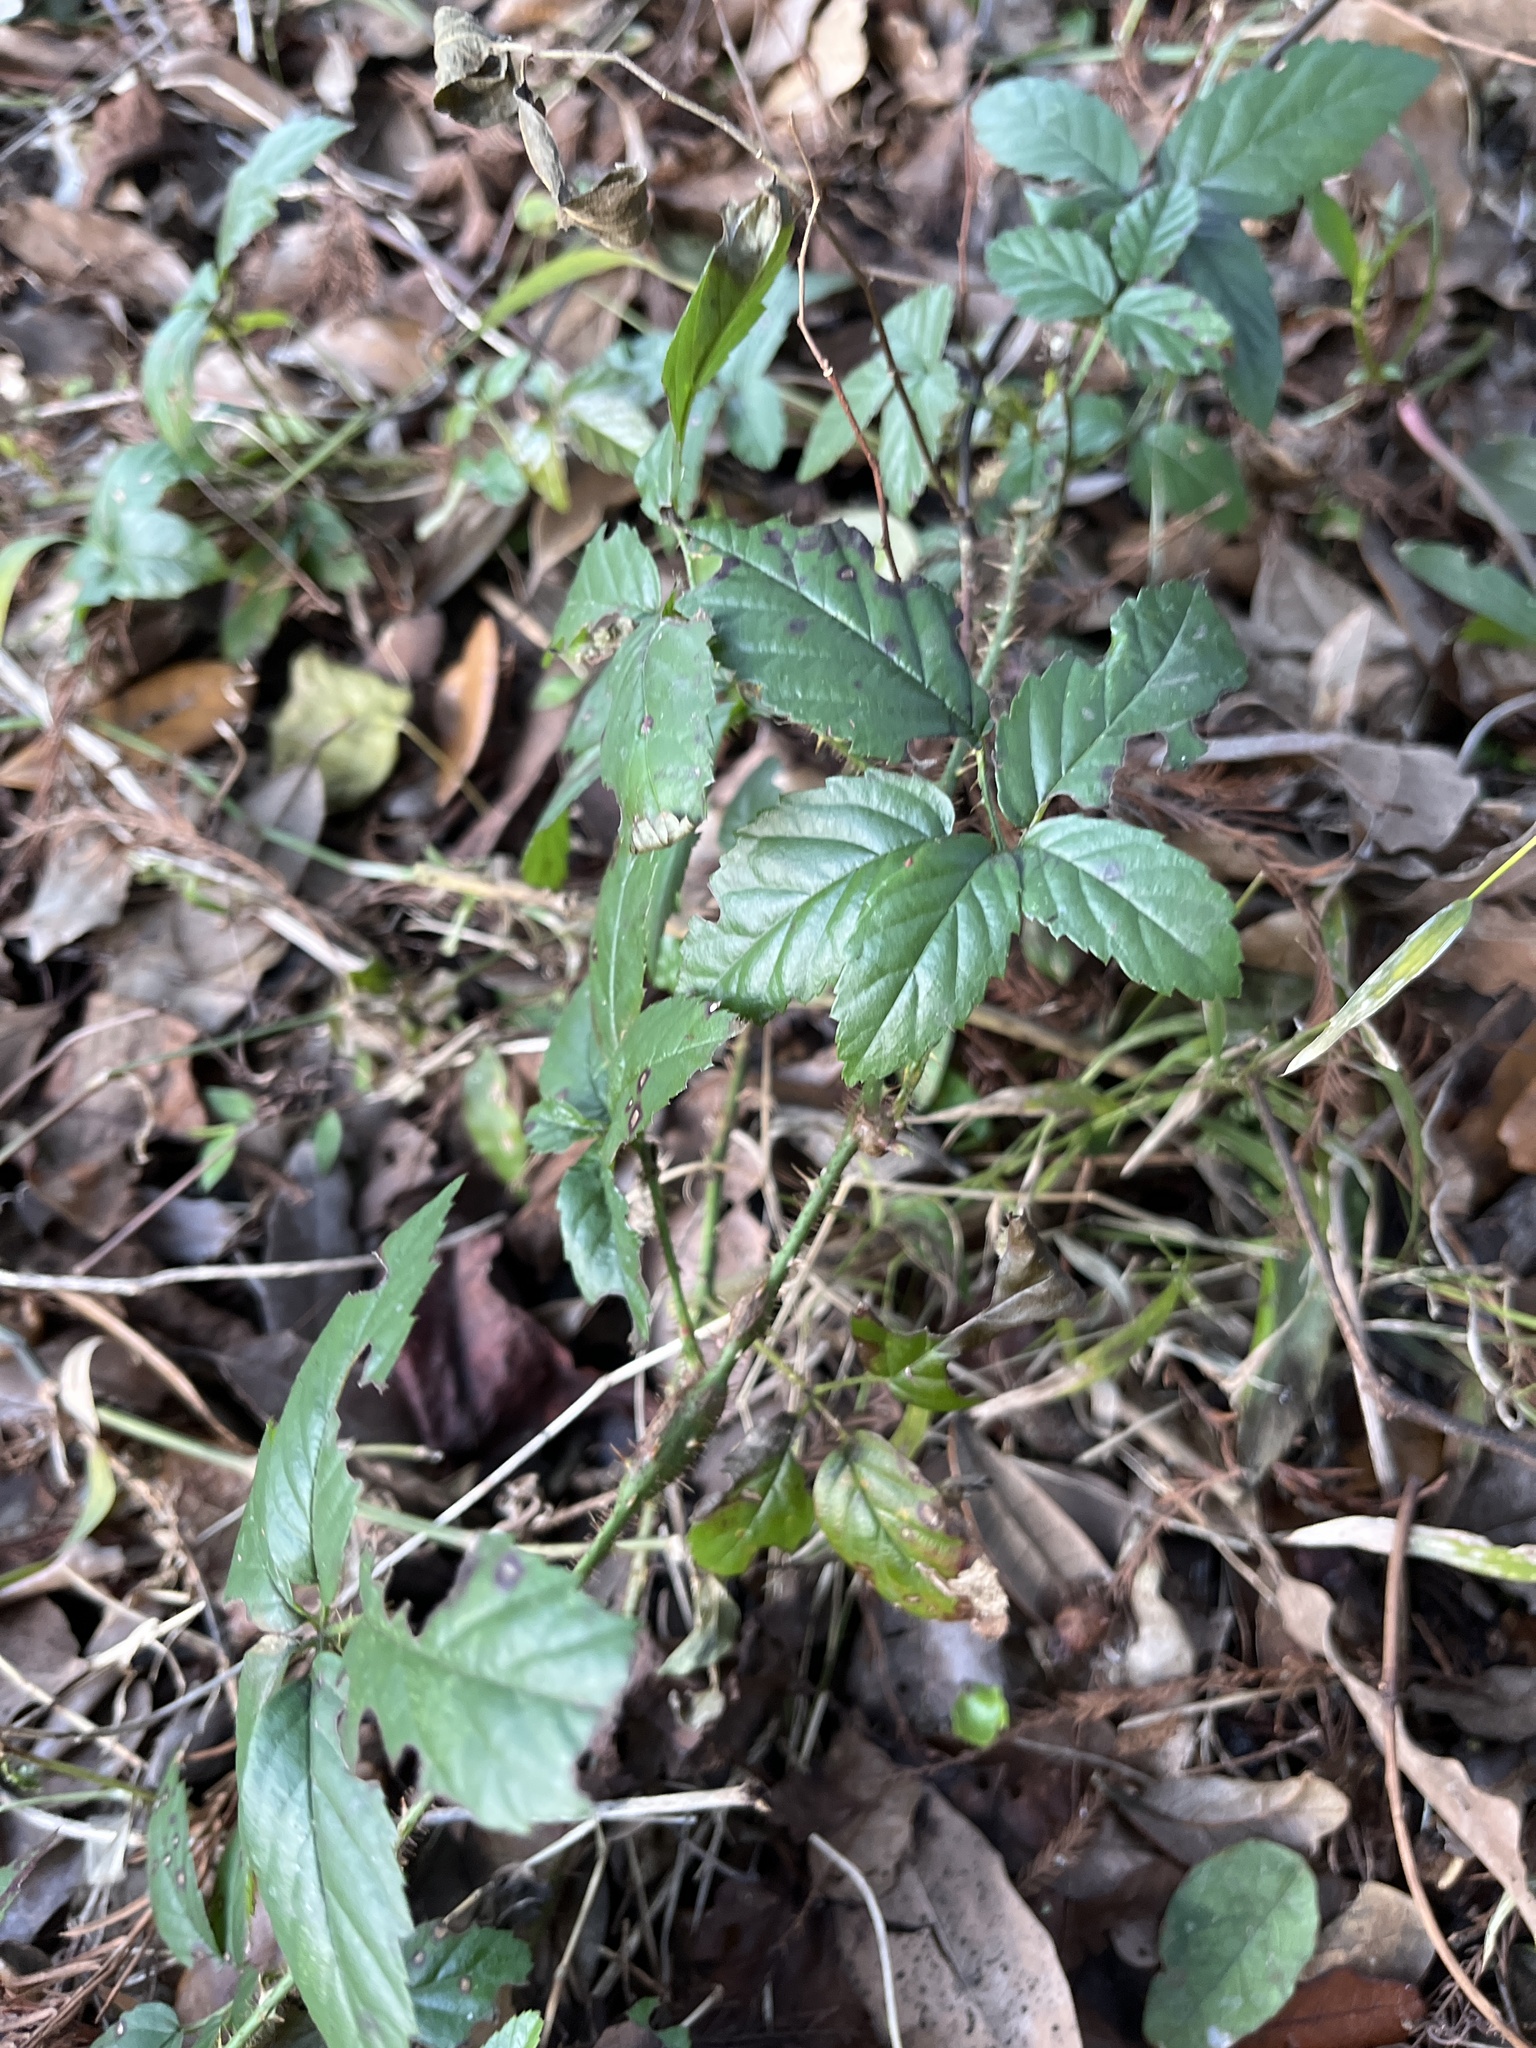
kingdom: Plantae
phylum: Tracheophyta
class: Magnoliopsida
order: Rosales
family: Rosaceae
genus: Rubus
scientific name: Rubus trivialis
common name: Southern dewberry
